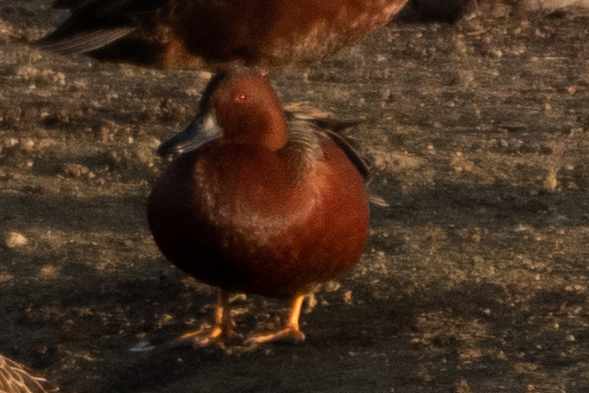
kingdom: Animalia
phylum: Chordata
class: Aves
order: Anseriformes
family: Anatidae
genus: Spatula
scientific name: Spatula cyanoptera
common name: Cinnamon teal
